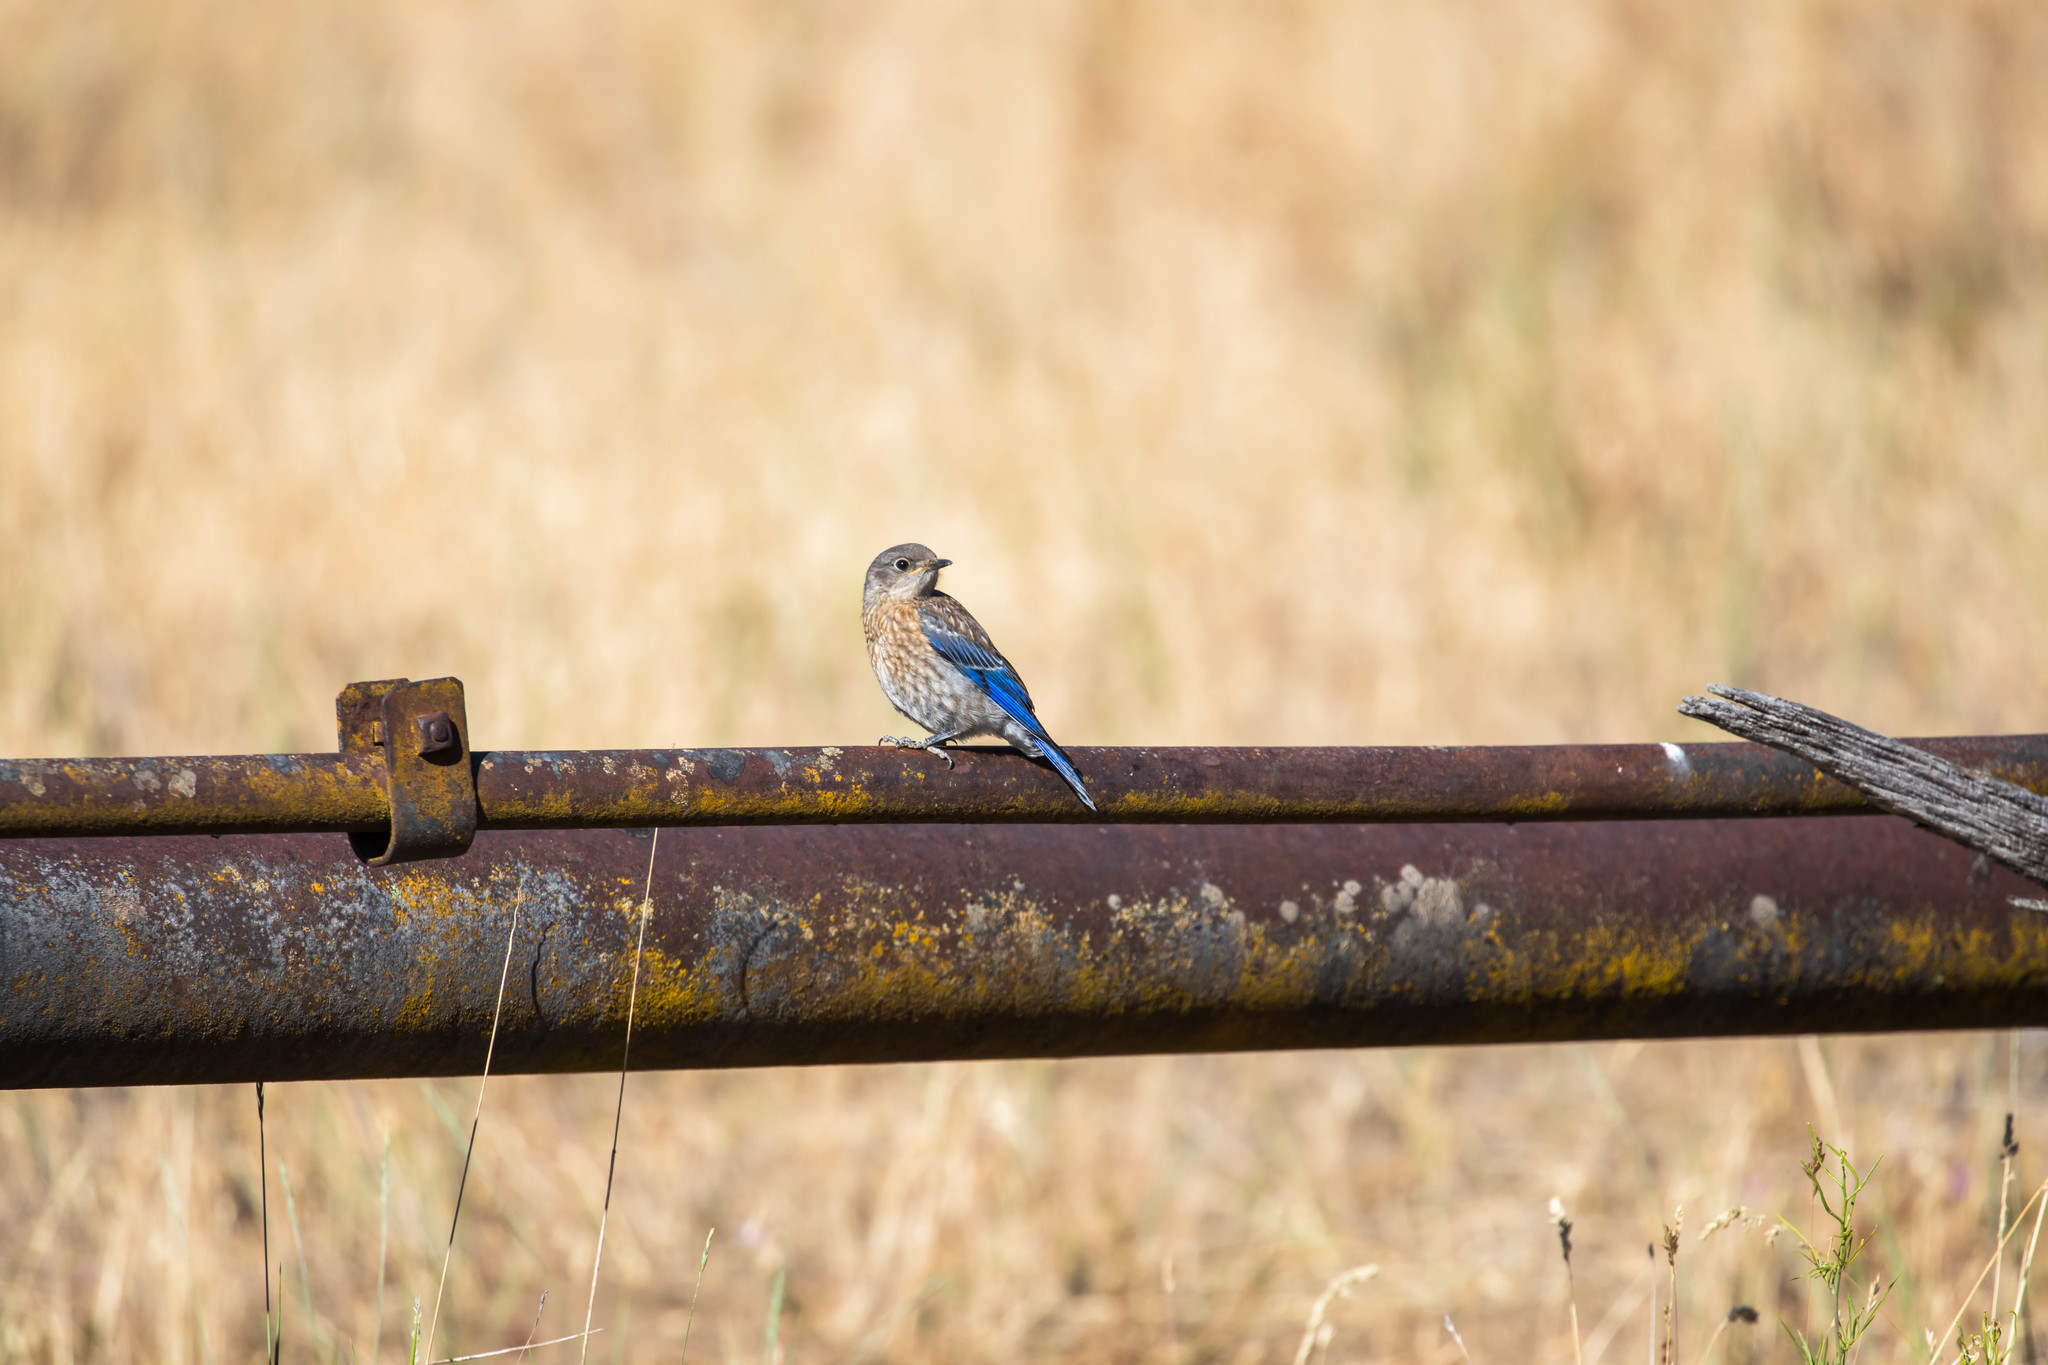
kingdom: Animalia
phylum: Chordata
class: Aves
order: Passeriformes
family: Turdidae
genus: Sialia
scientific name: Sialia mexicana
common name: Western bluebird
